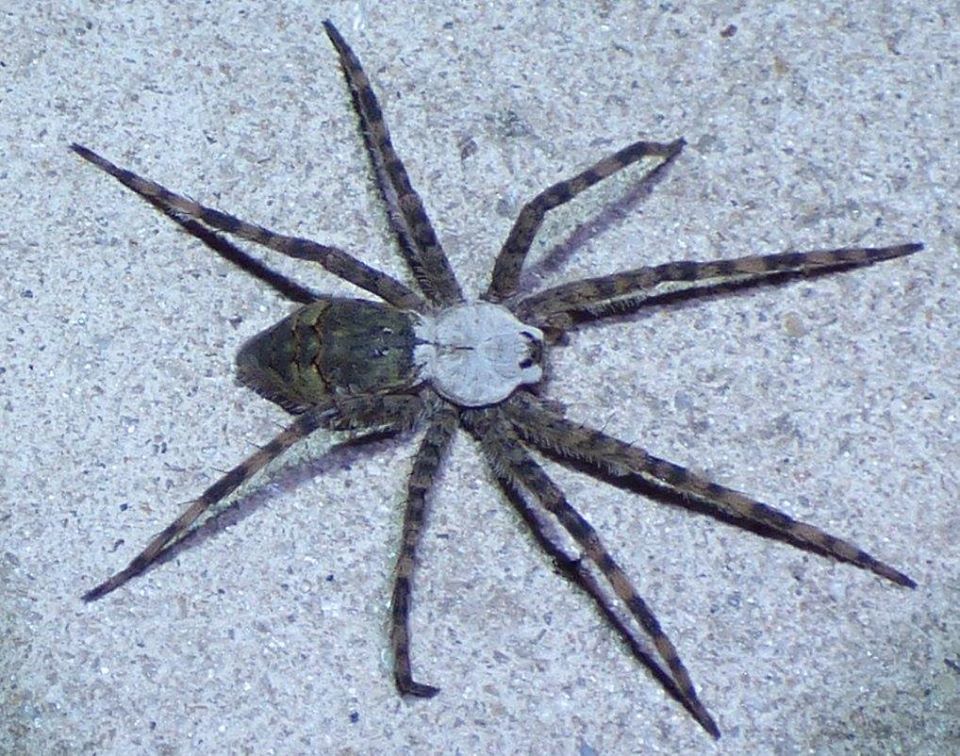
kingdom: Animalia
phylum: Arthropoda
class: Arachnida
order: Araneae
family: Pisauridae
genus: Dolomedes
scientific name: Dolomedes albineus
